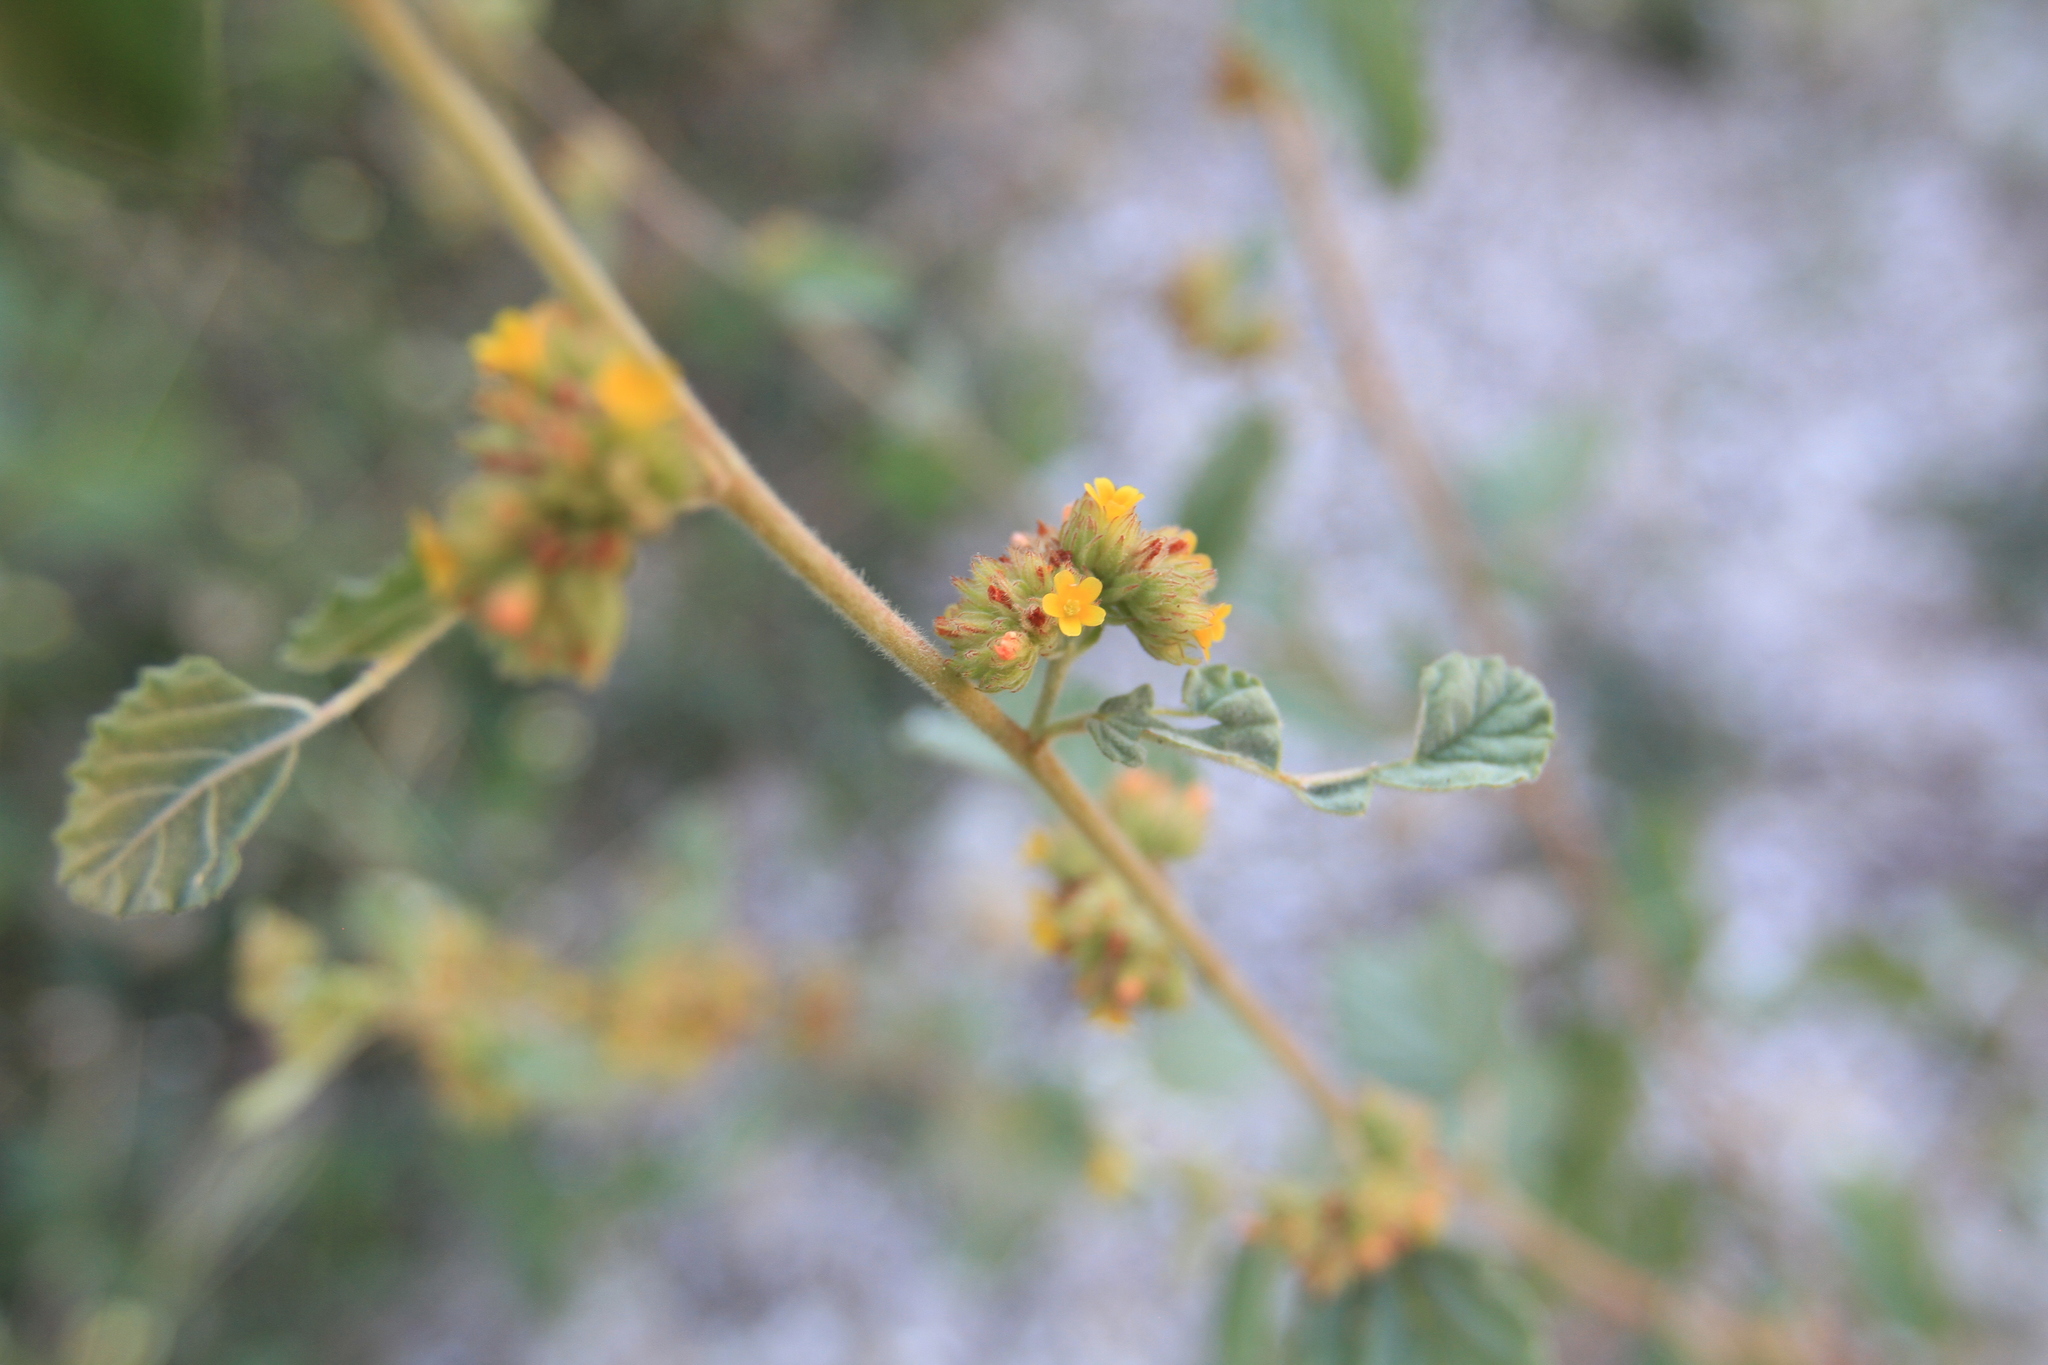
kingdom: Plantae
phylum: Tracheophyta
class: Magnoliopsida
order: Malvales
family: Malvaceae
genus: Waltheria
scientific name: Waltheria indica
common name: Leather-coat
